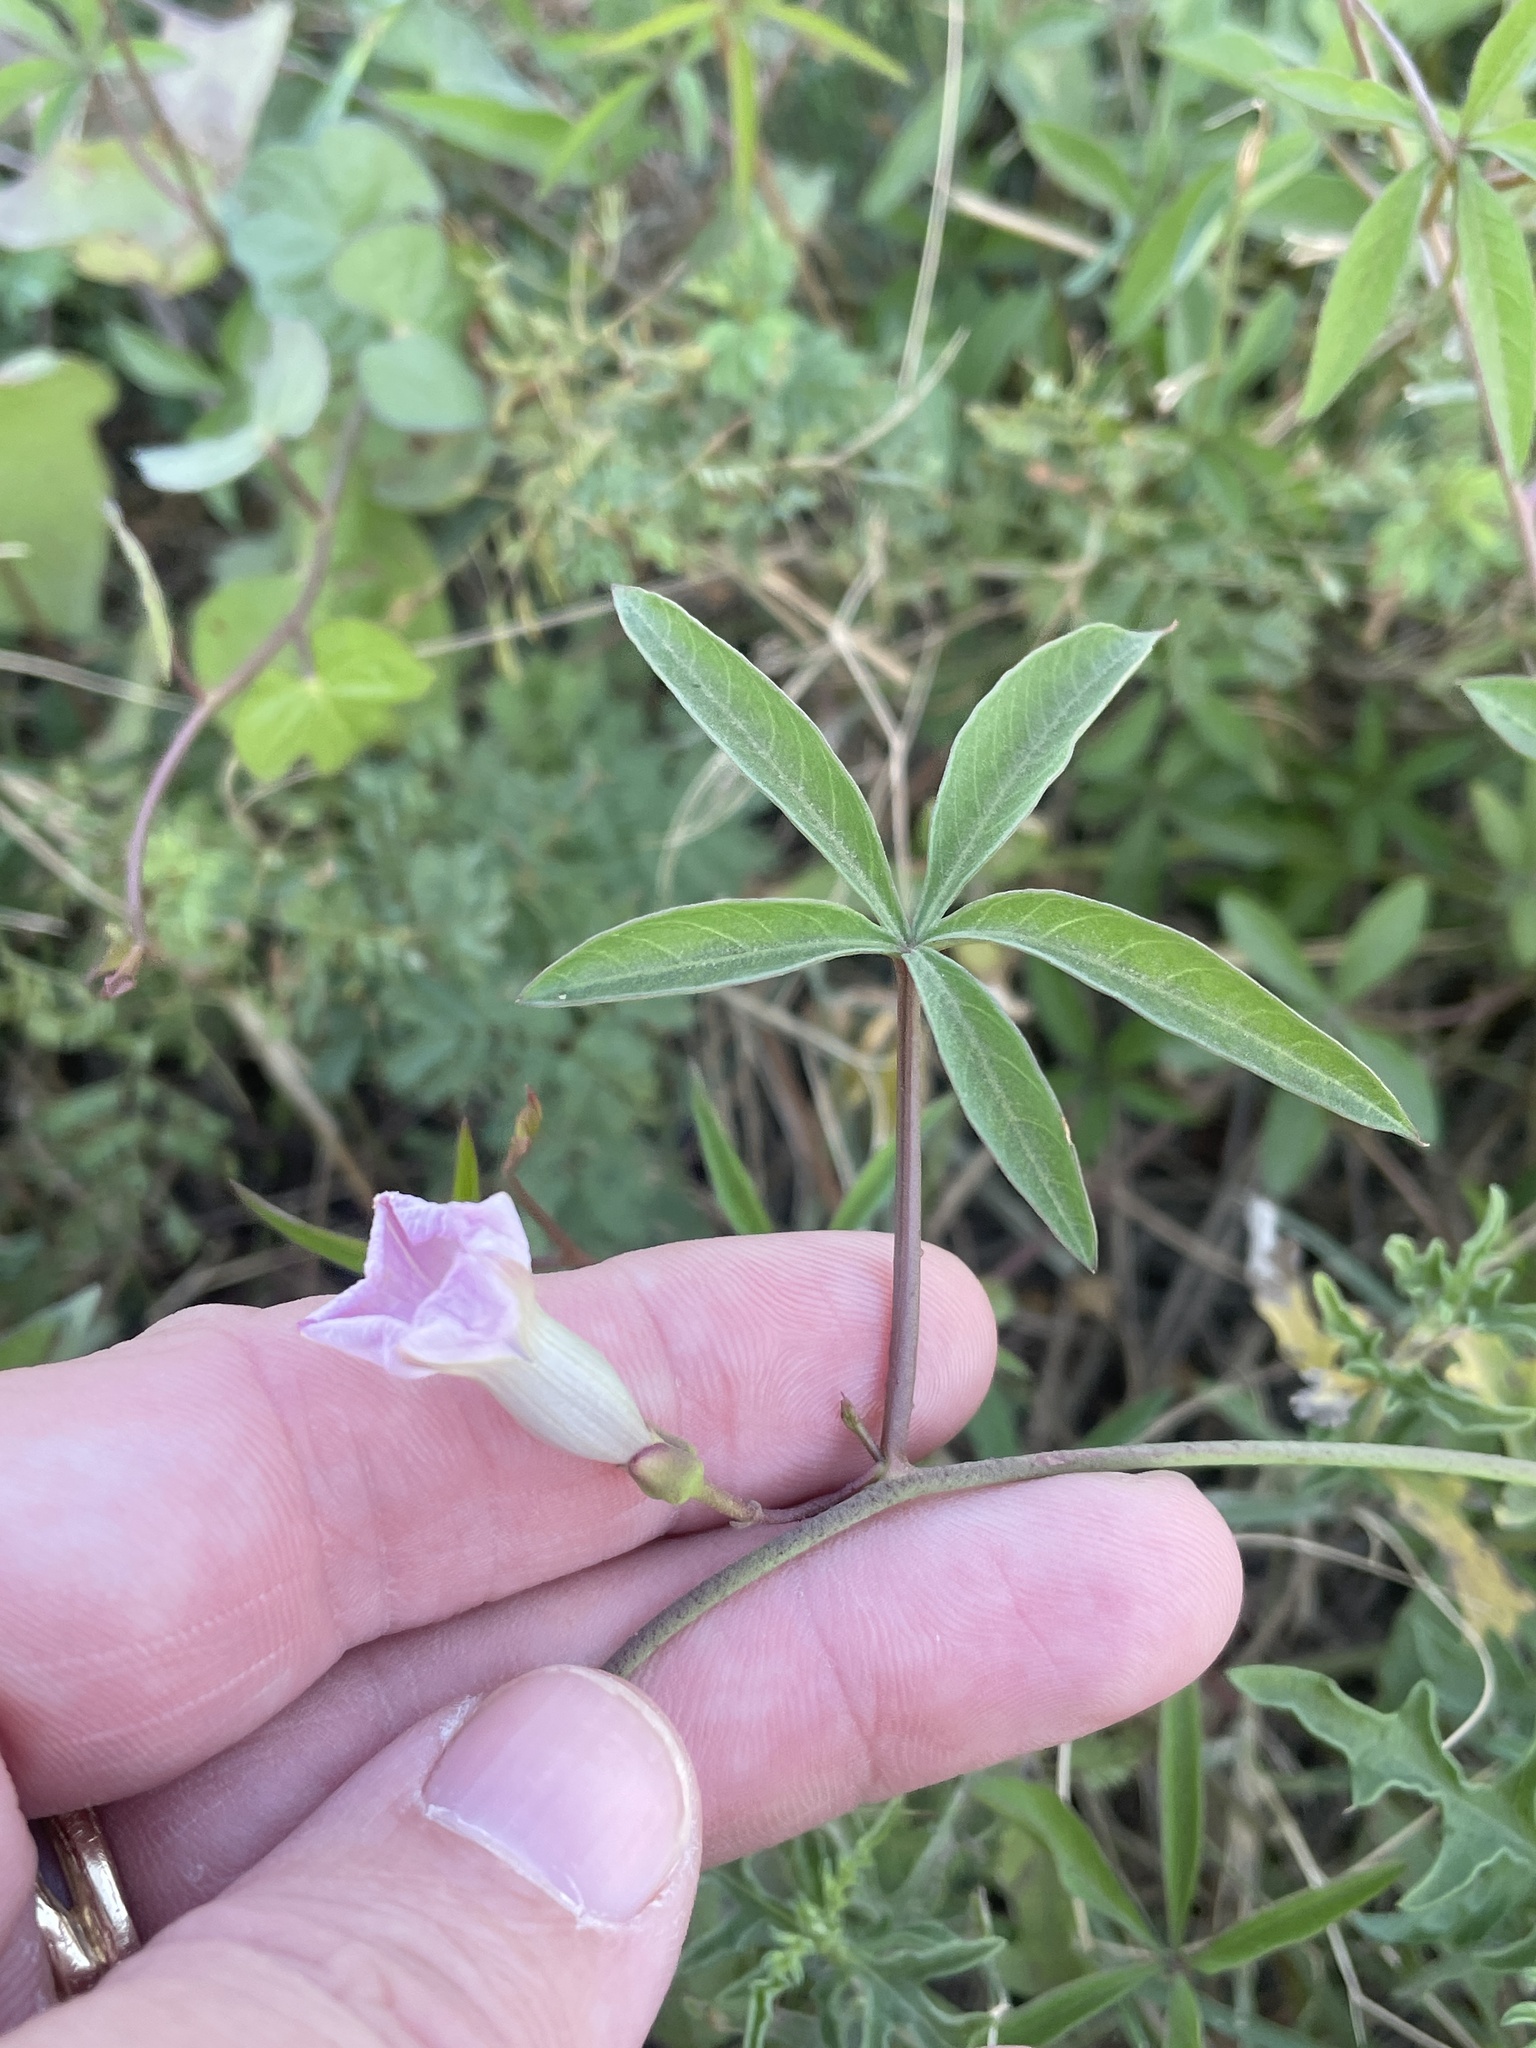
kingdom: Plantae
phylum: Tracheophyta
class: Magnoliopsida
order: Solanales
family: Convolvulaceae
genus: Ipomoea
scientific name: Ipomoea heptaphylla
